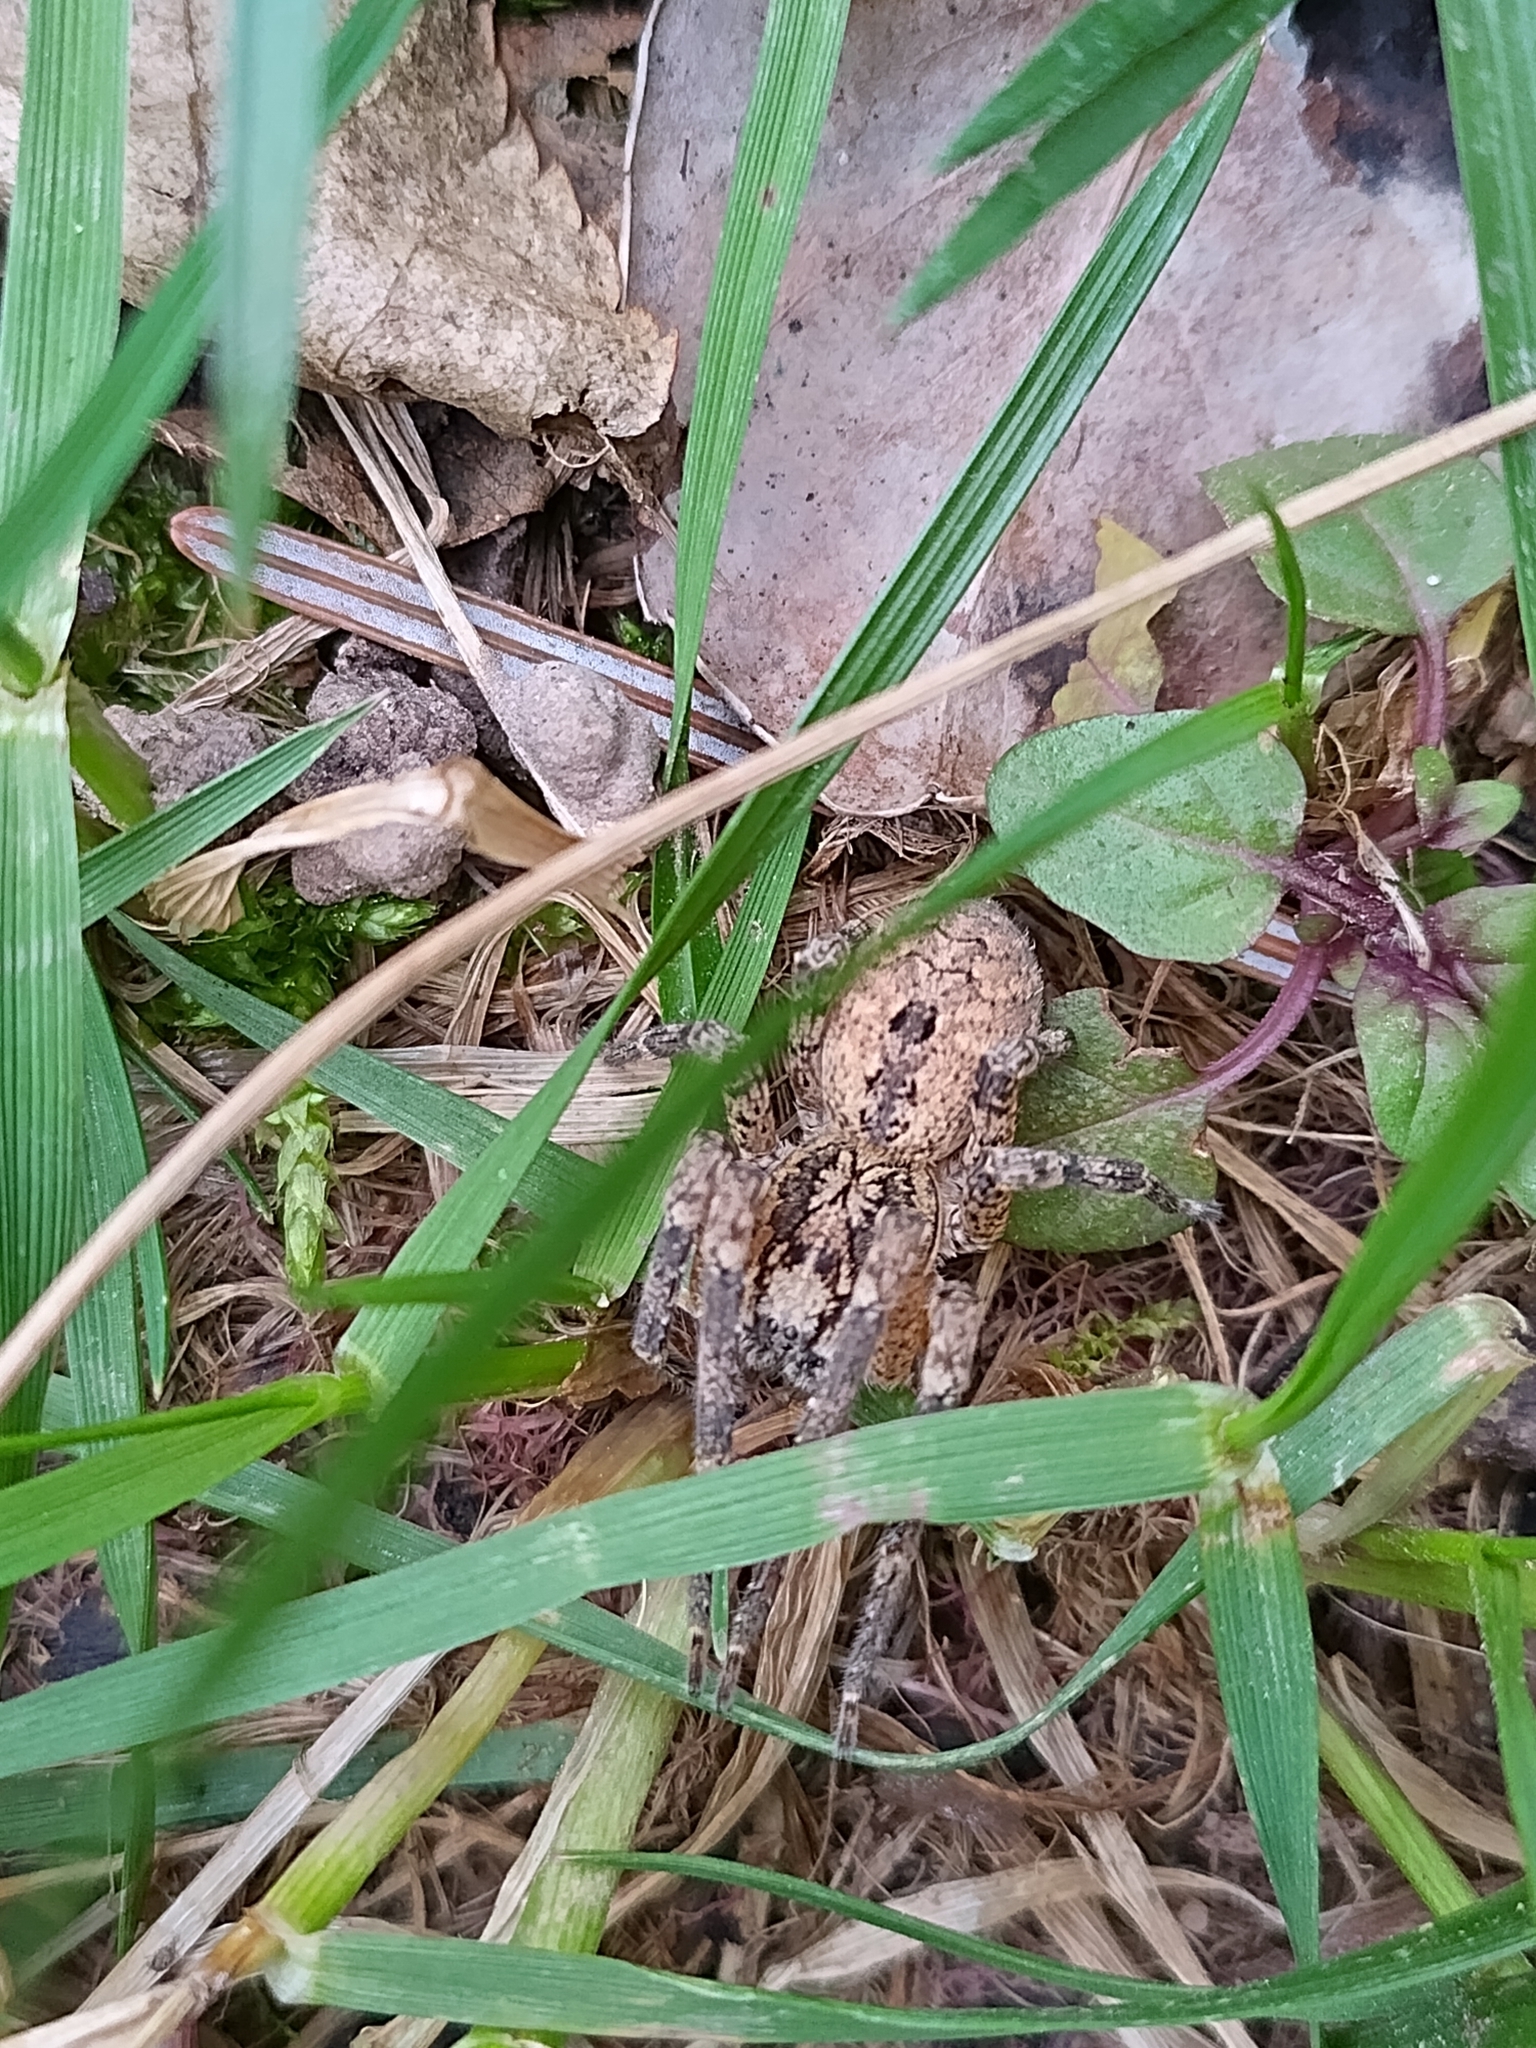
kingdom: Animalia
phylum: Arthropoda
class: Arachnida
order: Araneae
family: Zoropsidae
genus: Zoropsis
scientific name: Zoropsis spinimana
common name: Zoropsid spider
